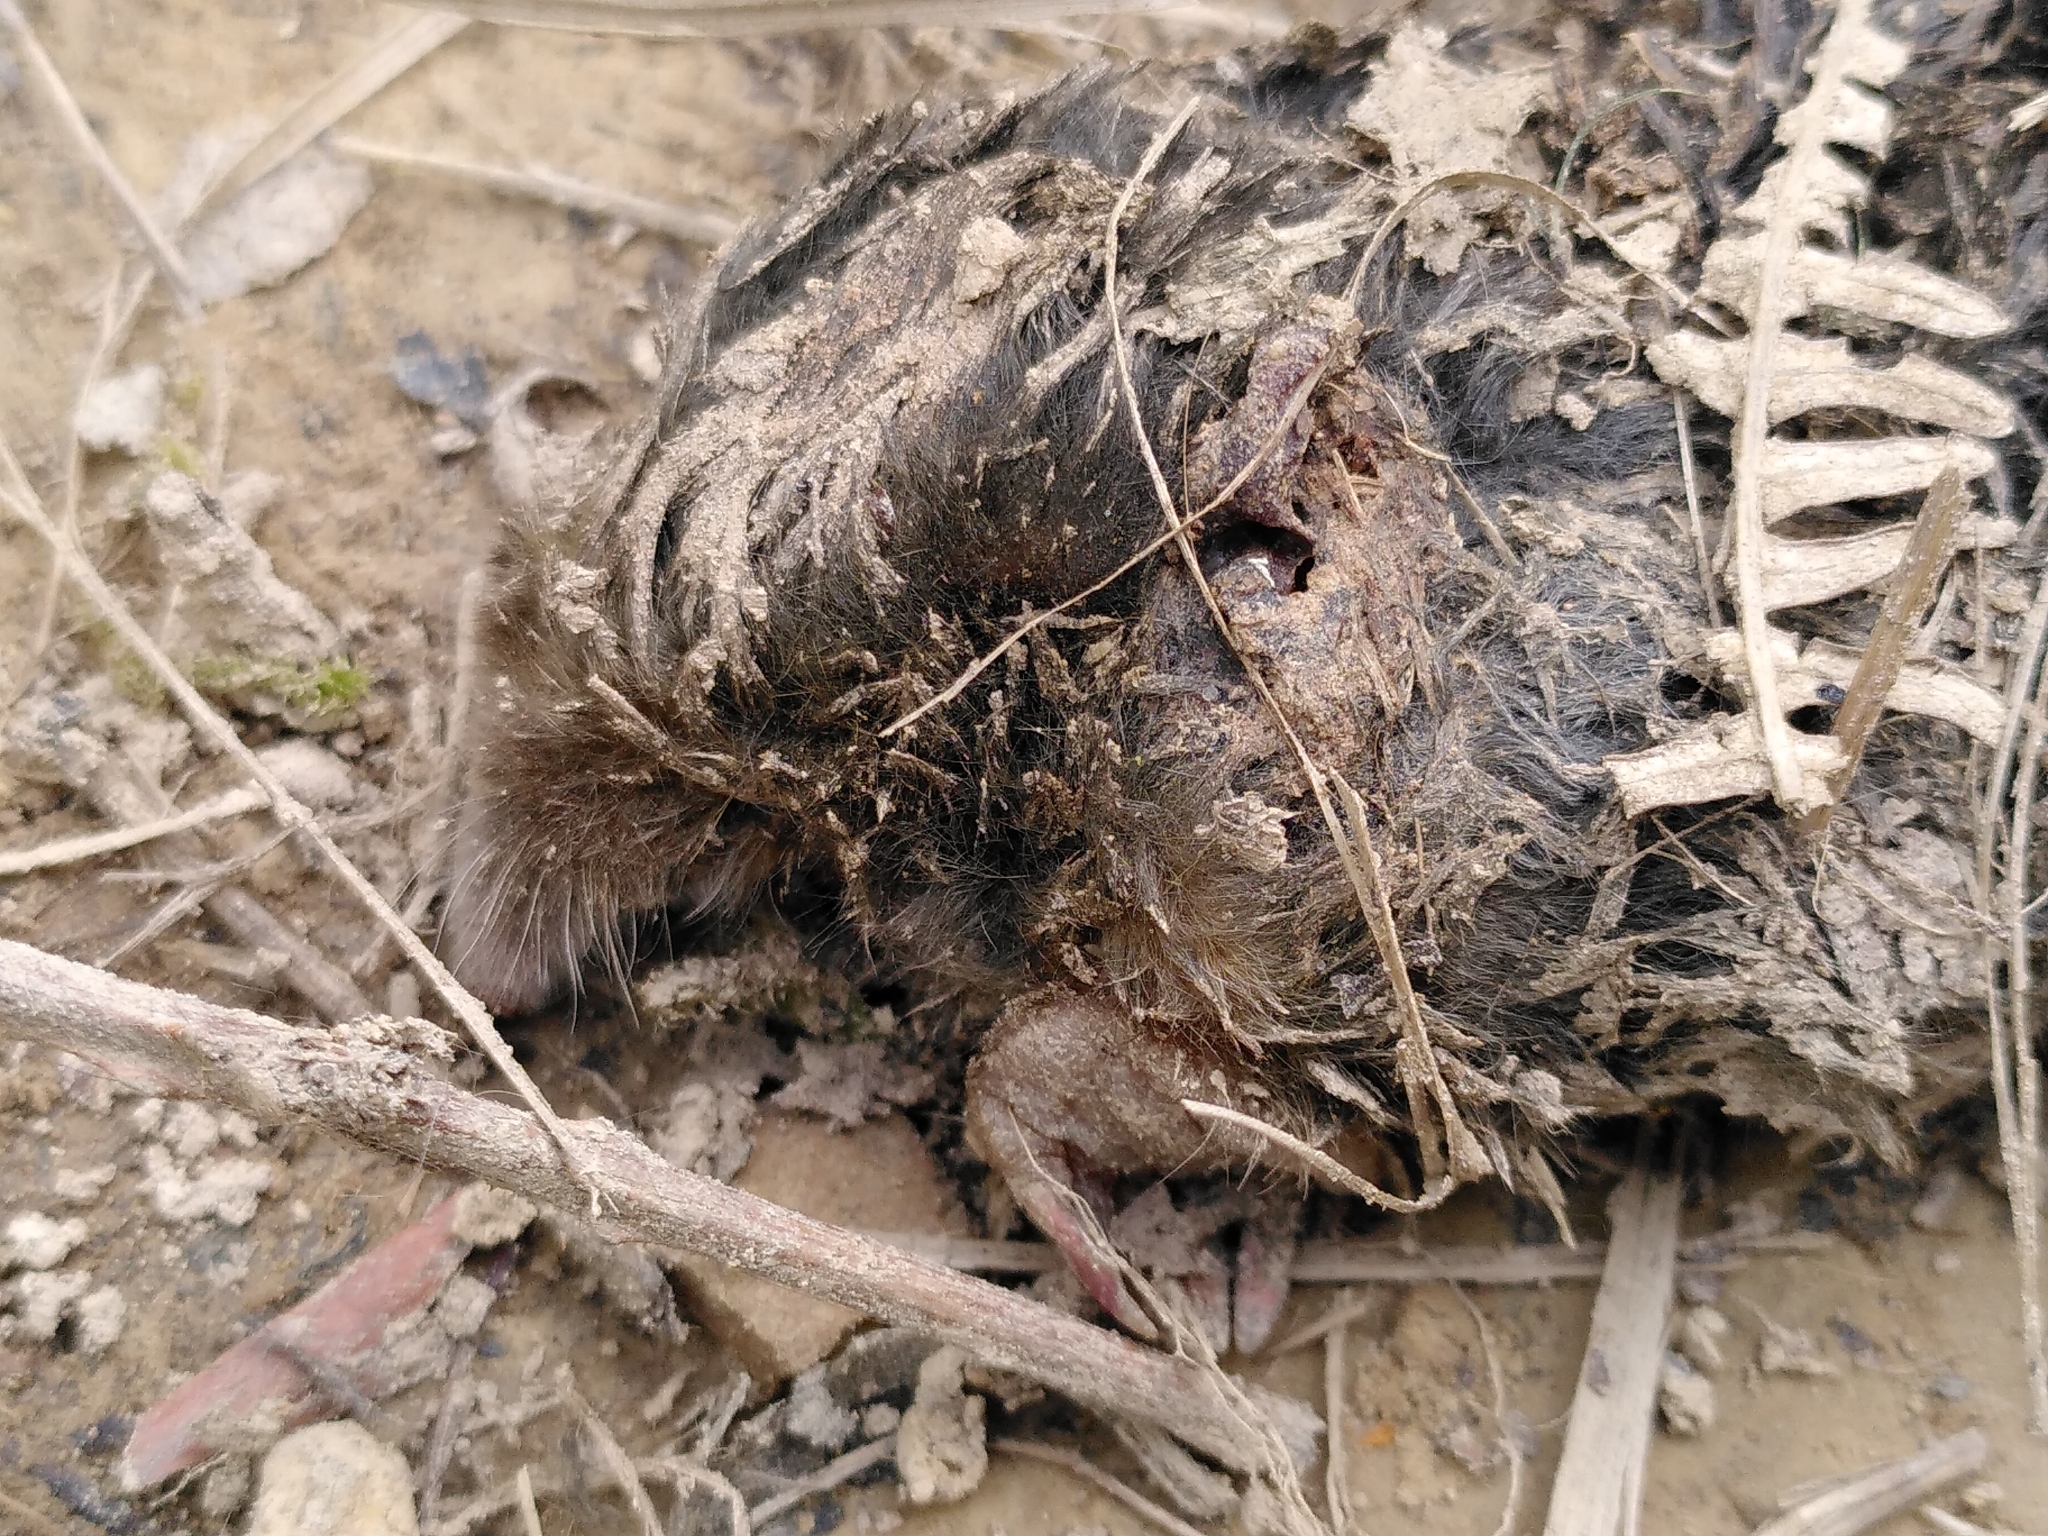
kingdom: Animalia
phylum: Chordata
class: Mammalia
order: Soricomorpha
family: Talpidae
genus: Talpa
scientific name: Talpa europaea
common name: European mole
